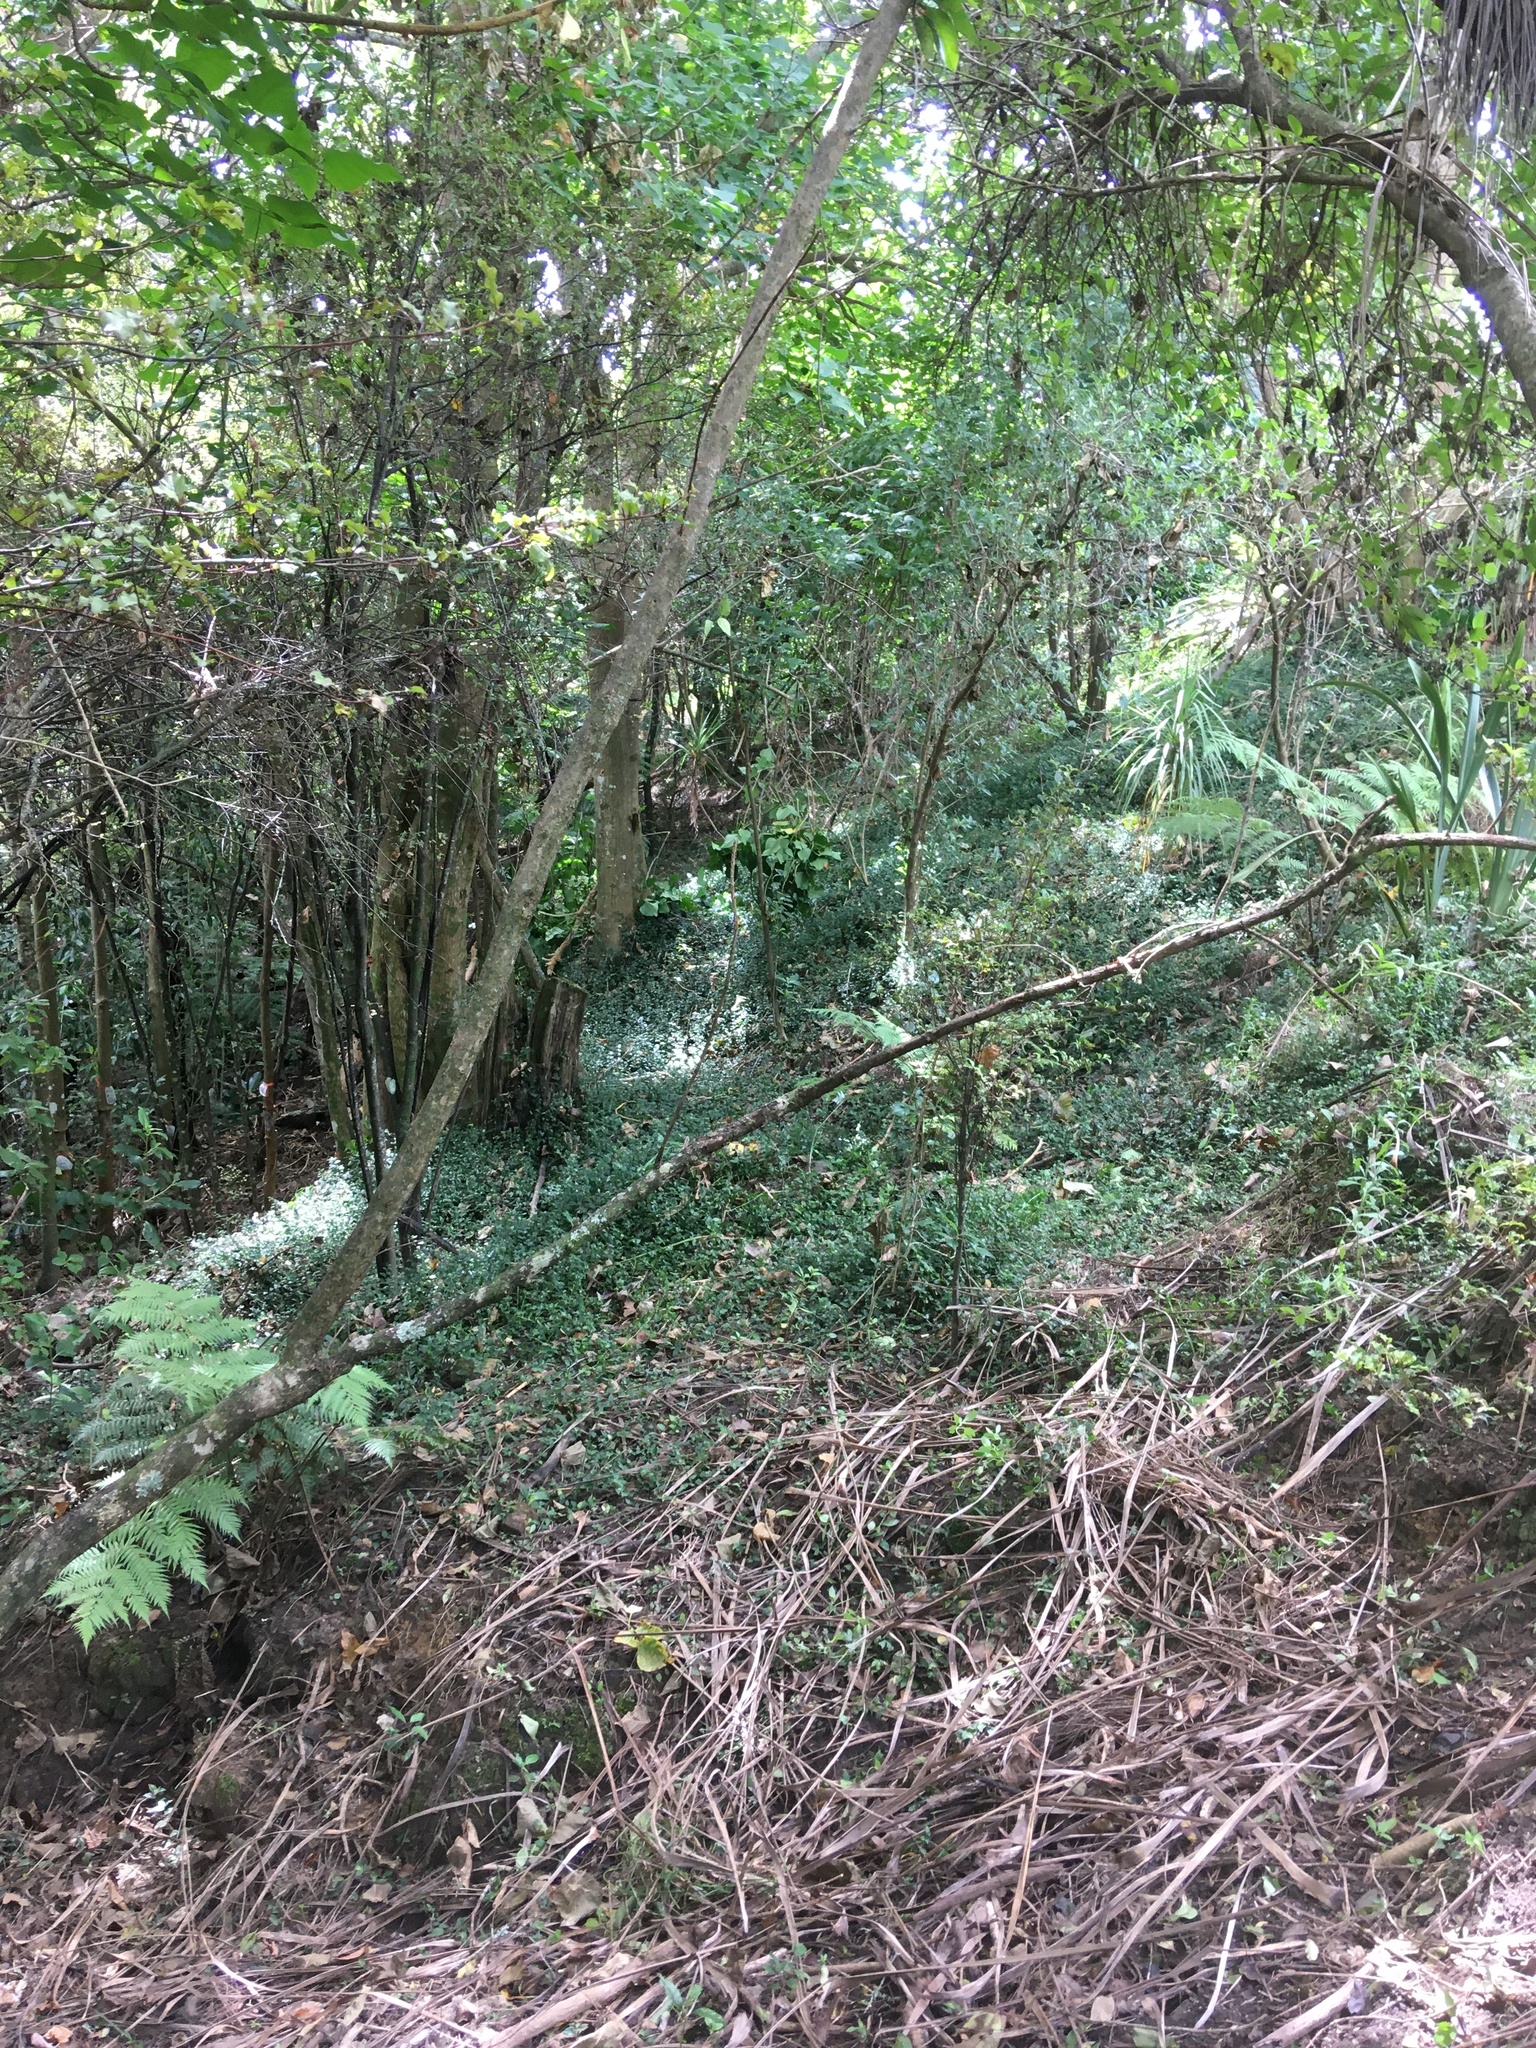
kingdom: Plantae
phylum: Tracheophyta
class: Magnoliopsida
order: Ericales
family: Primulaceae
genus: Myrsine
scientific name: Myrsine australis
